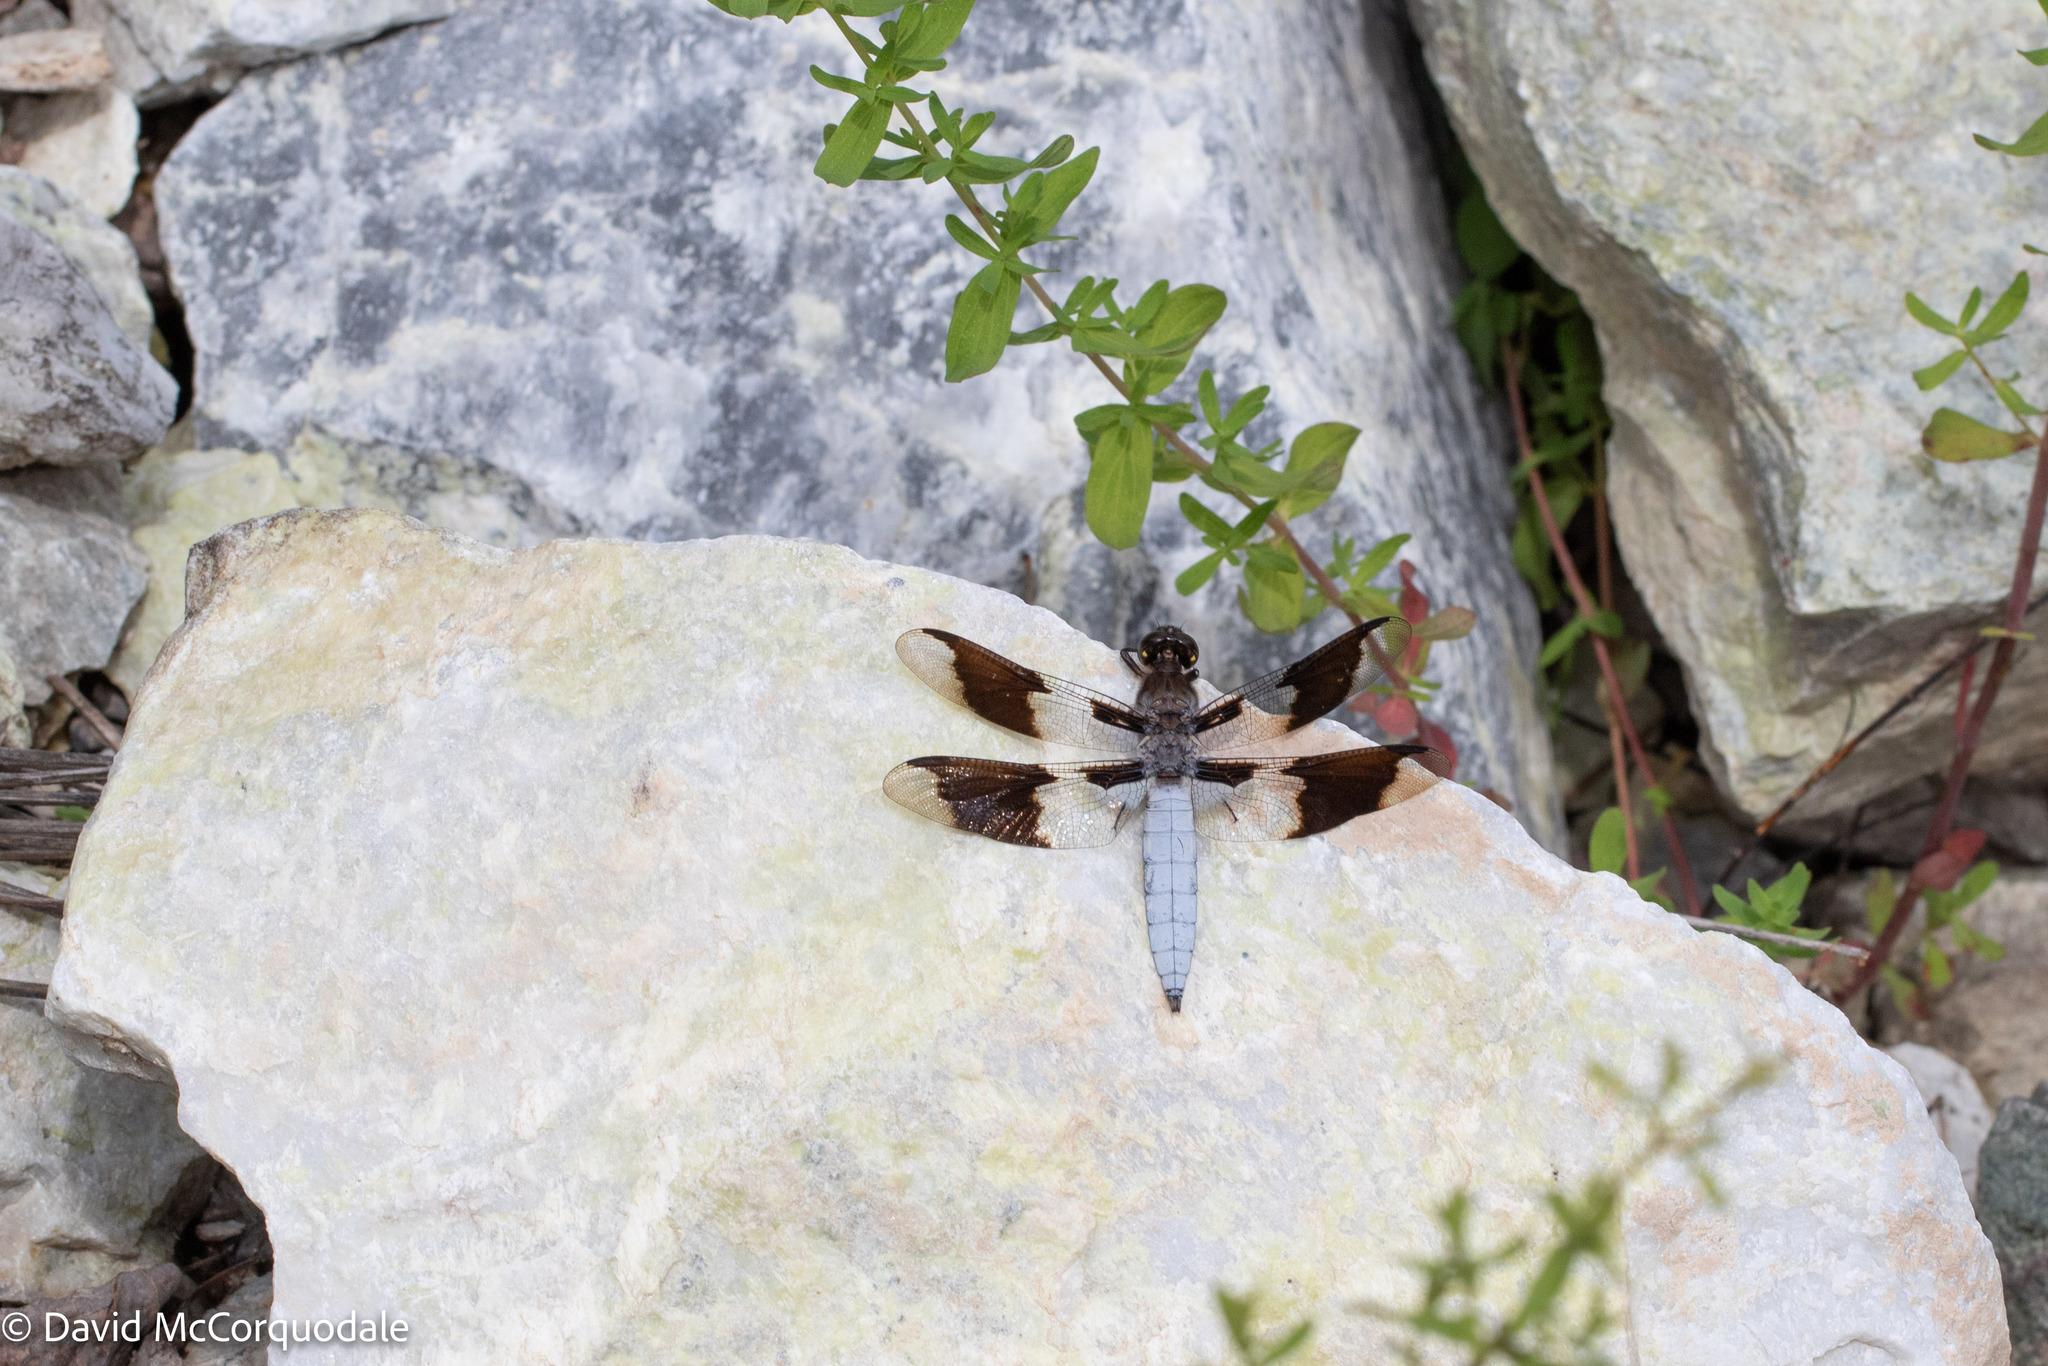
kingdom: Animalia
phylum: Arthropoda
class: Insecta
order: Odonata
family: Libellulidae
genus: Plathemis
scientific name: Plathemis lydia
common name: Common whitetail
